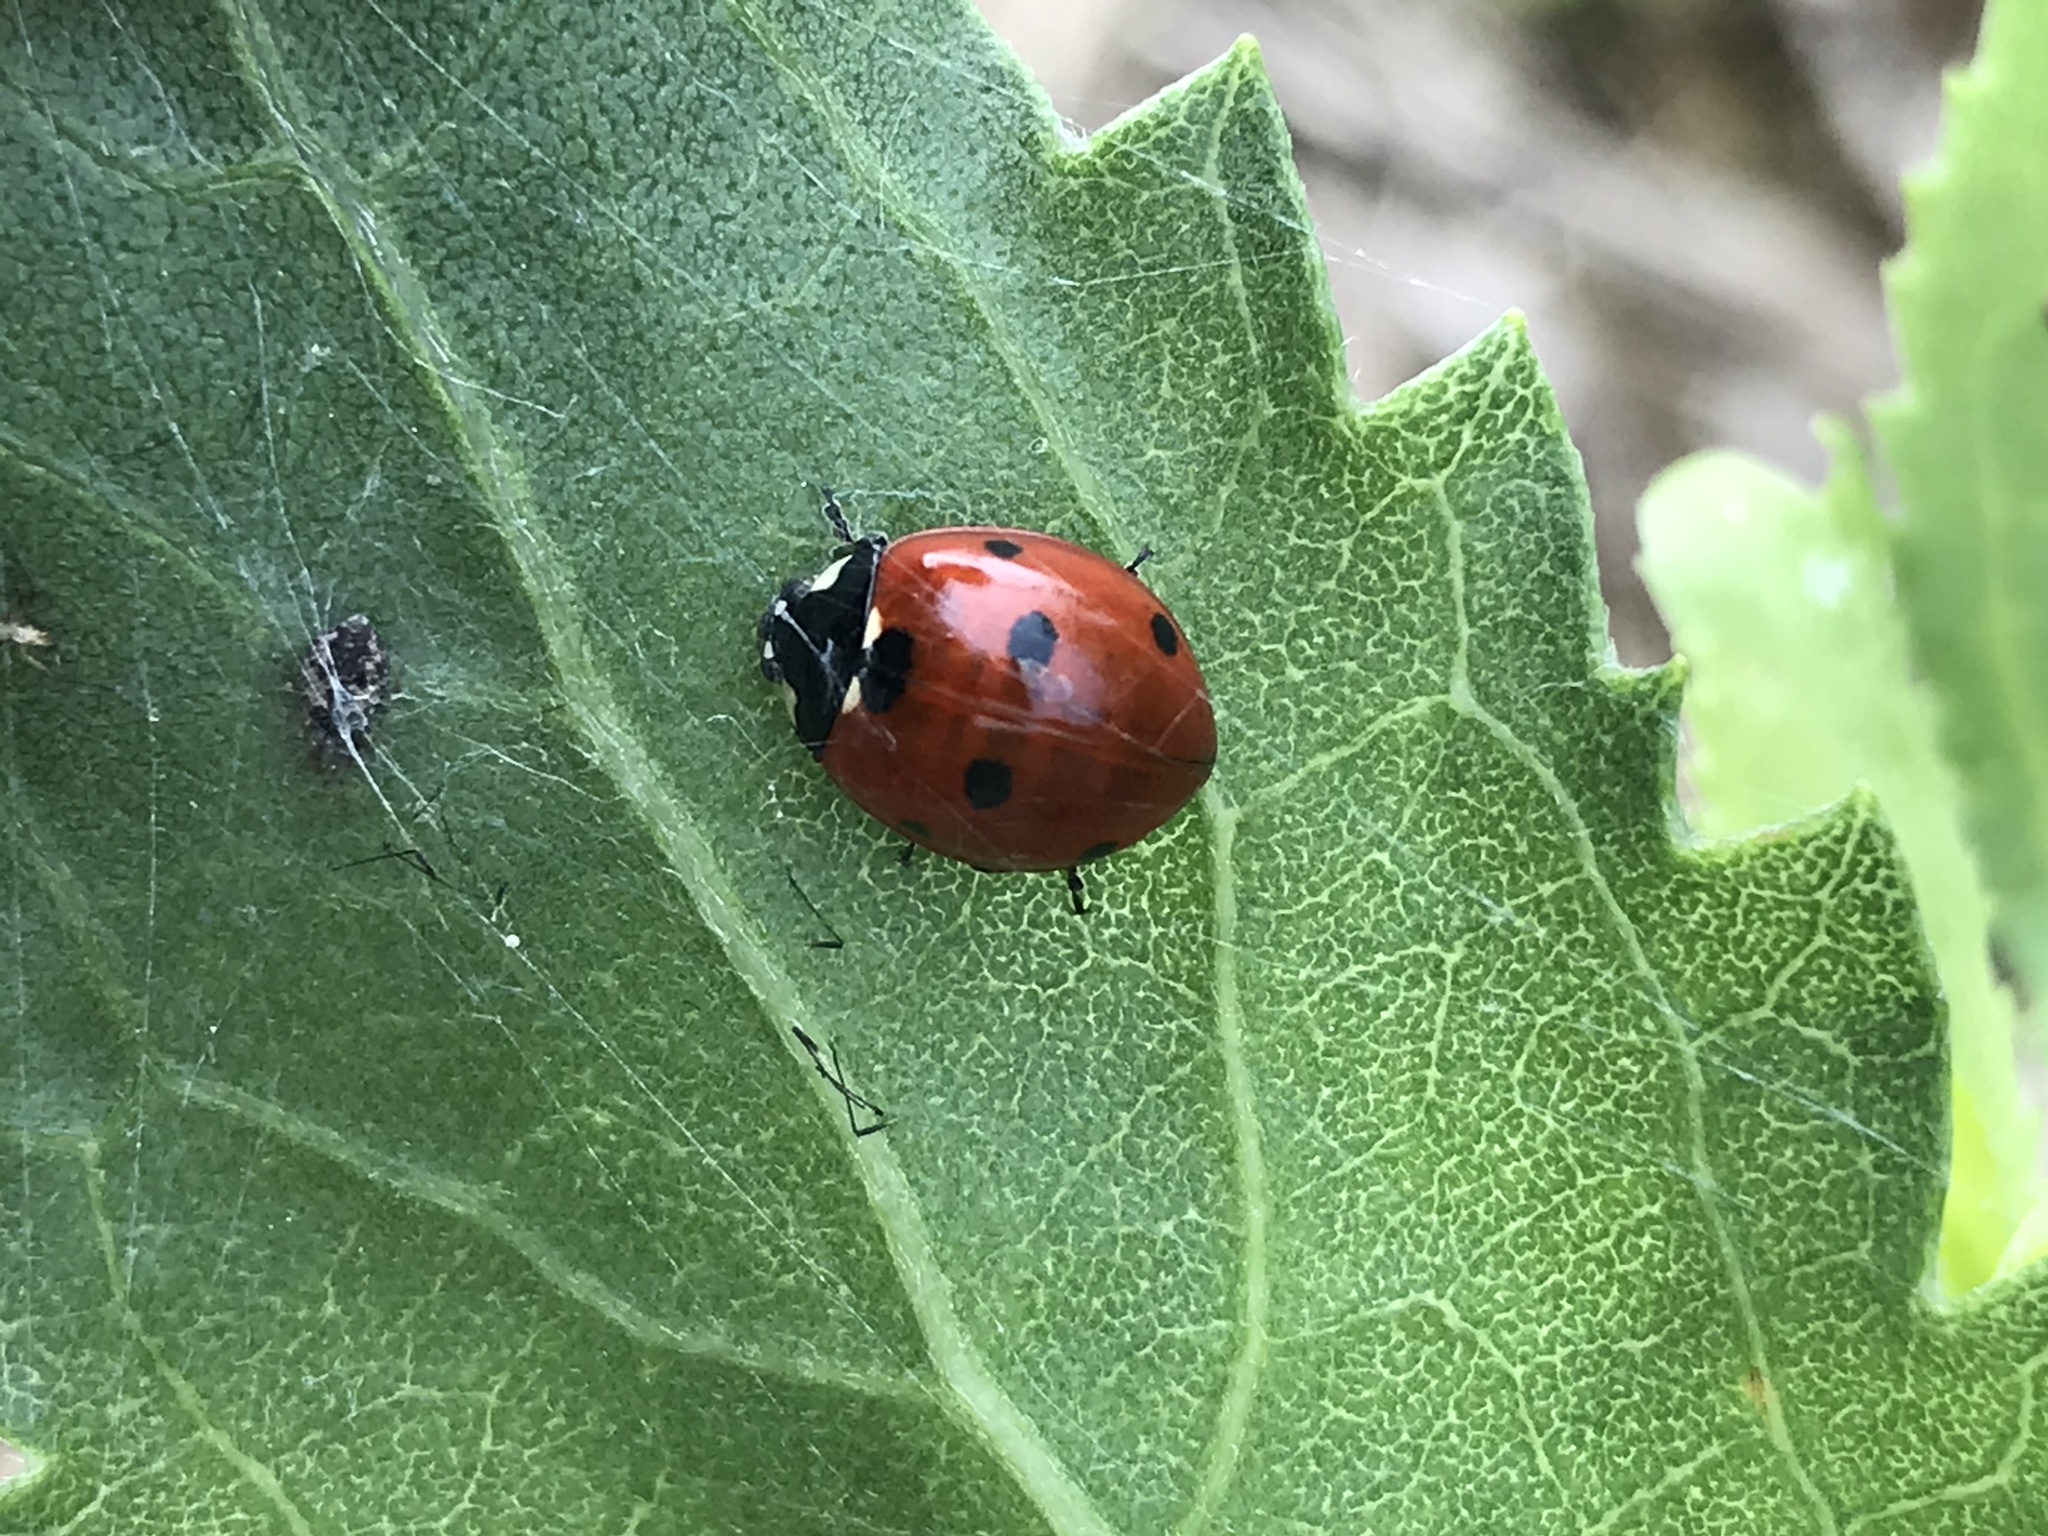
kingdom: Animalia
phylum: Arthropoda
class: Insecta
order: Coleoptera
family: Coccinellidae
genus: Coccinella
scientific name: Coccinella septempunctata
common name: Sevenspotted lady beetle
